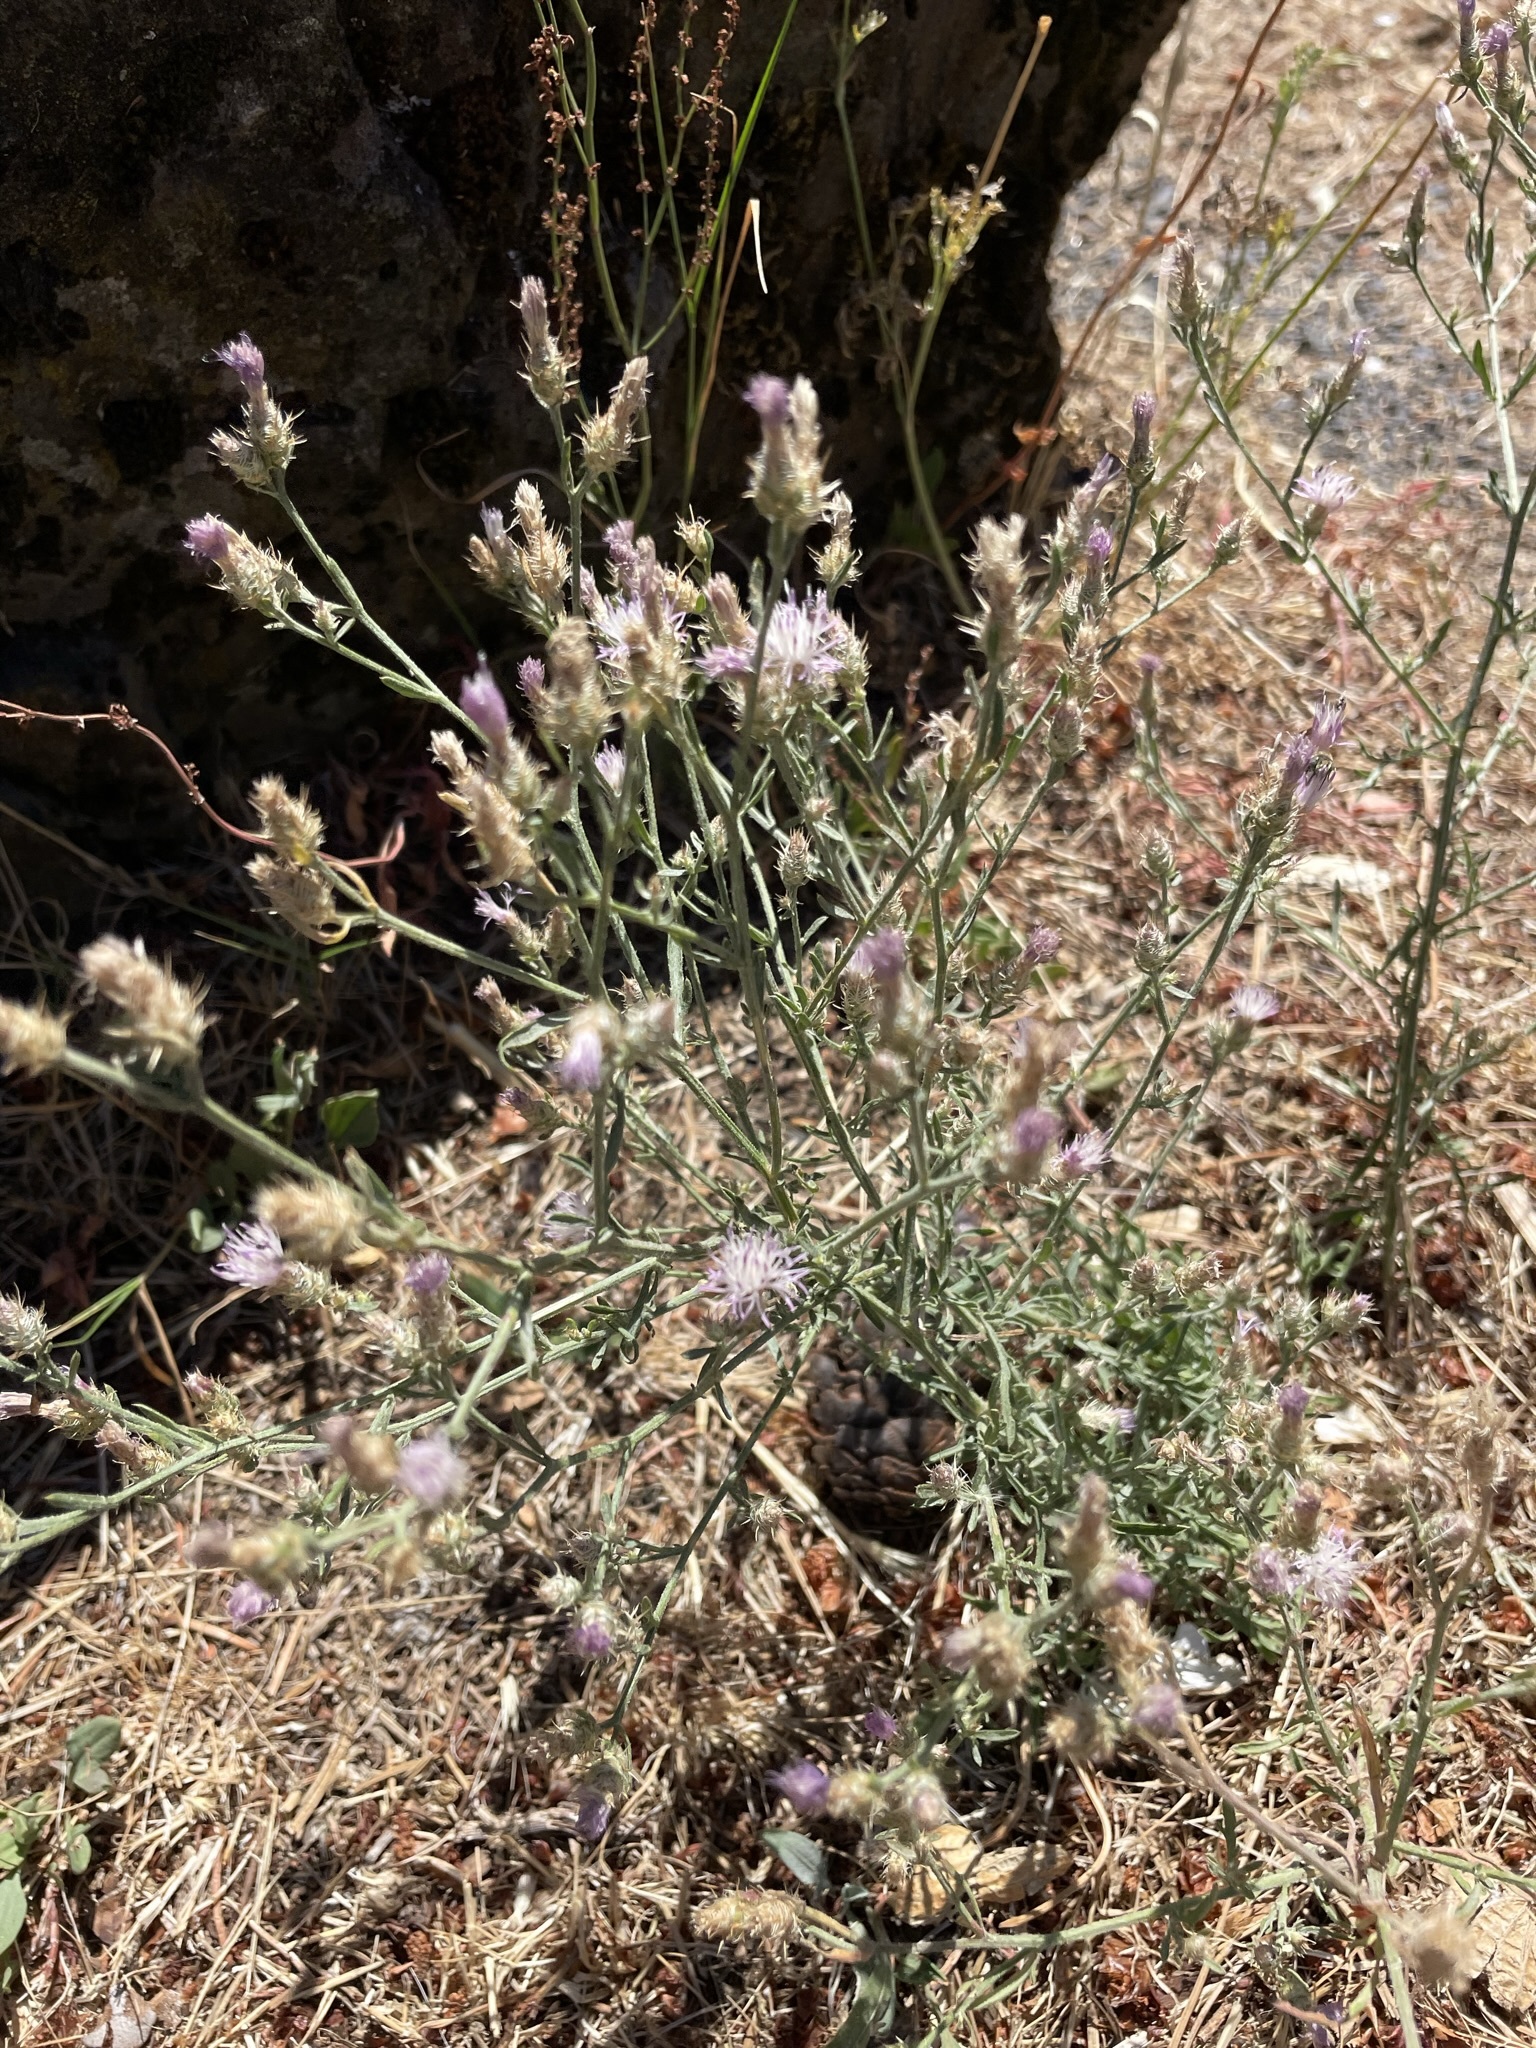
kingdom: Plantae
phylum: Tracheophyta
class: Magnoliopsida
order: Asterales
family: Asteraceae
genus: Centaurea
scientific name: Centaurea diffusa
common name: Diffuse knapweed
